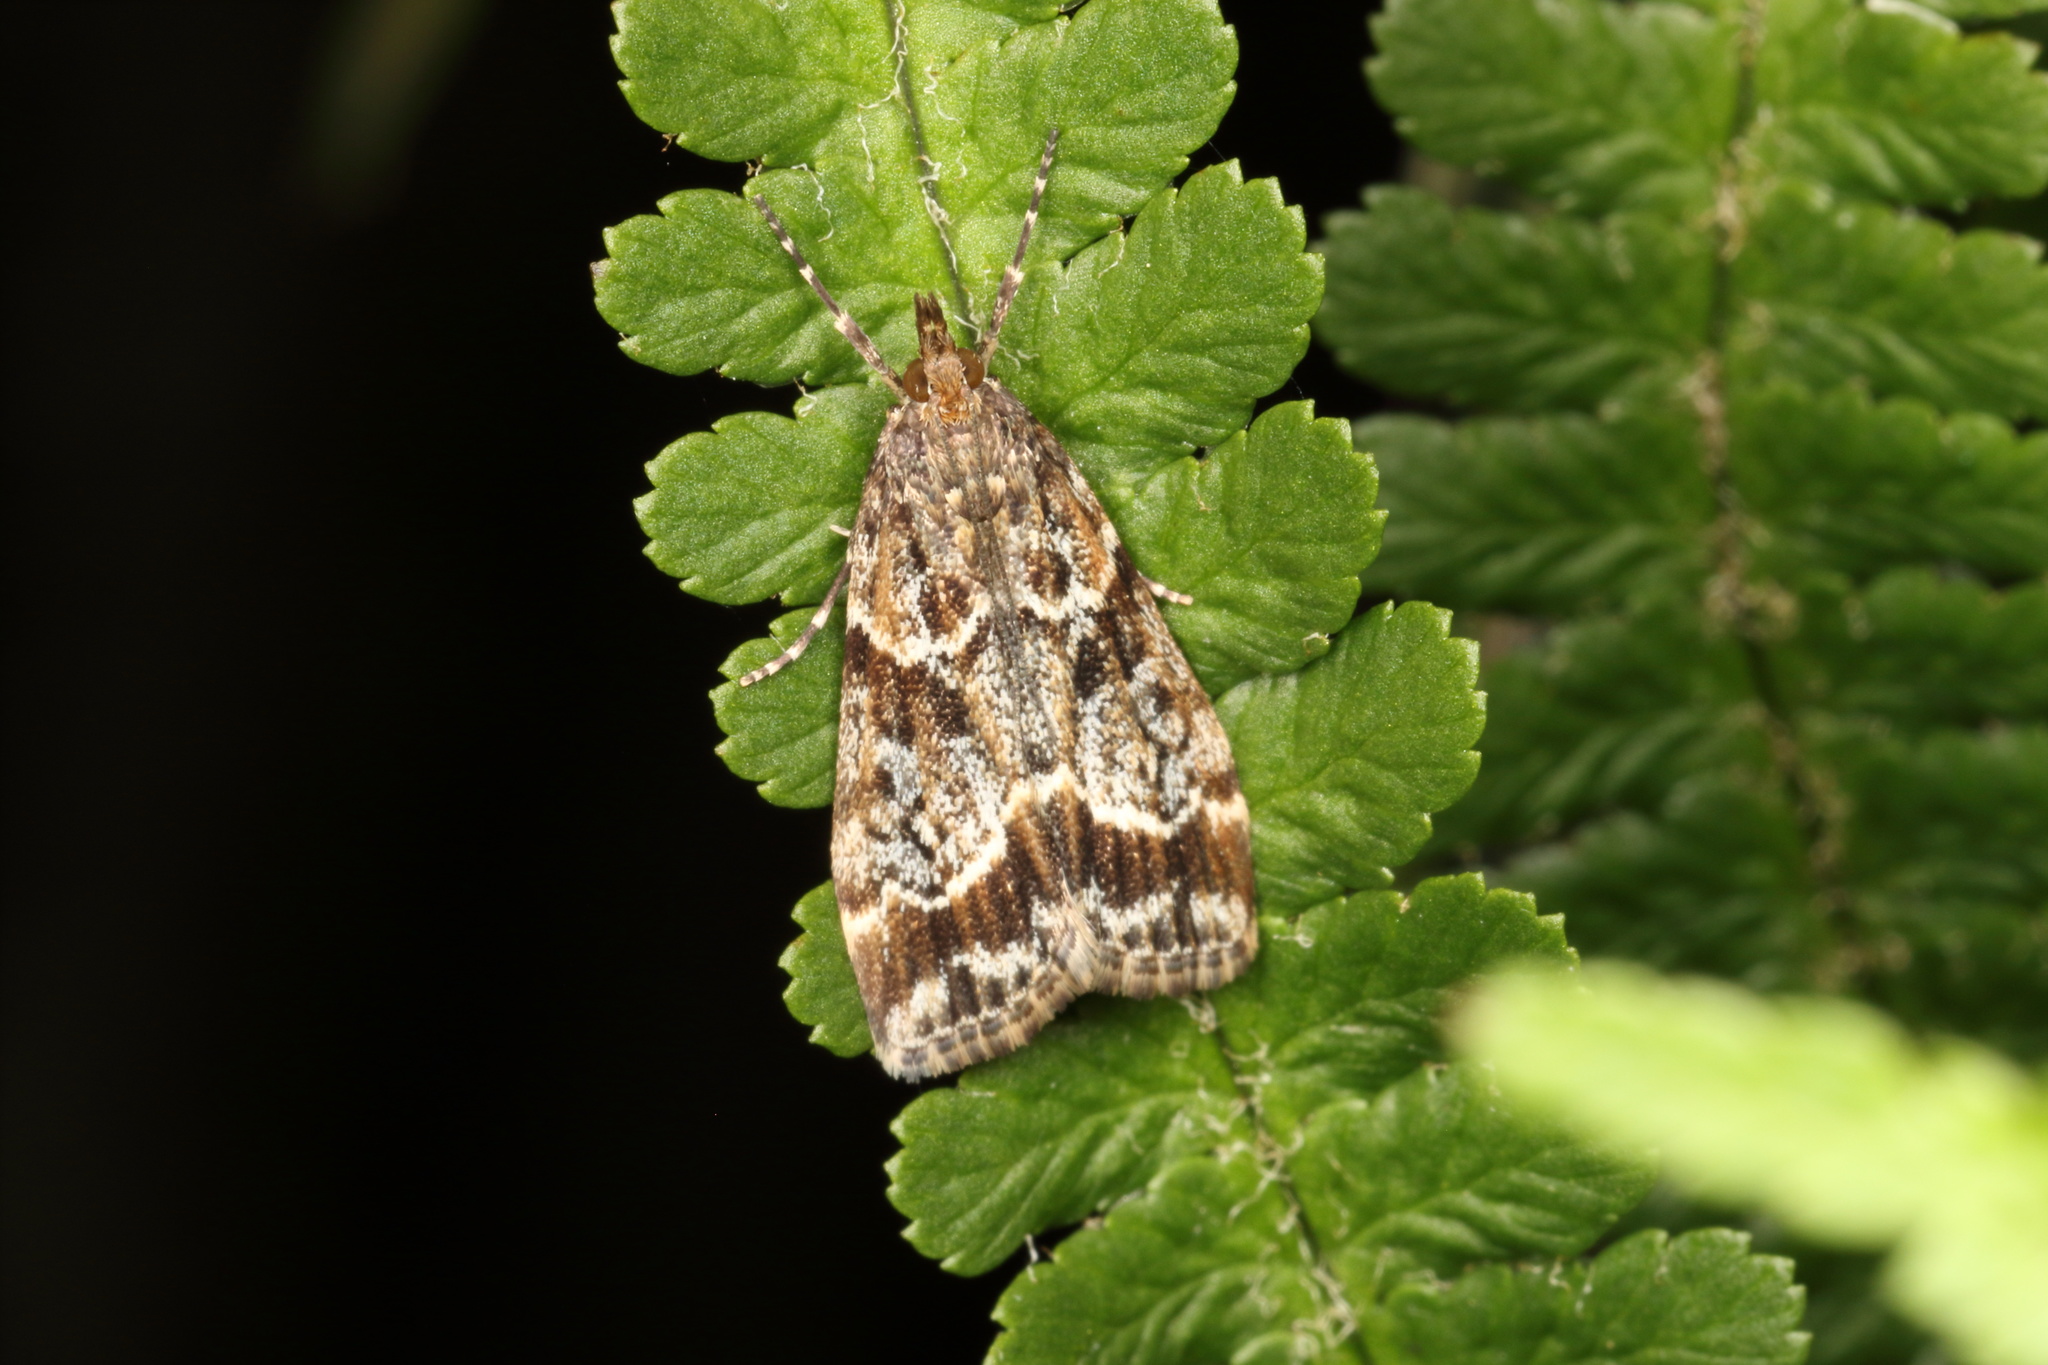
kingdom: Animalia
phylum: Arthropoda
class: Insecta
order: Lepidoptera
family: Crambidae
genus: Eudonia
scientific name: Eudonia legnota
